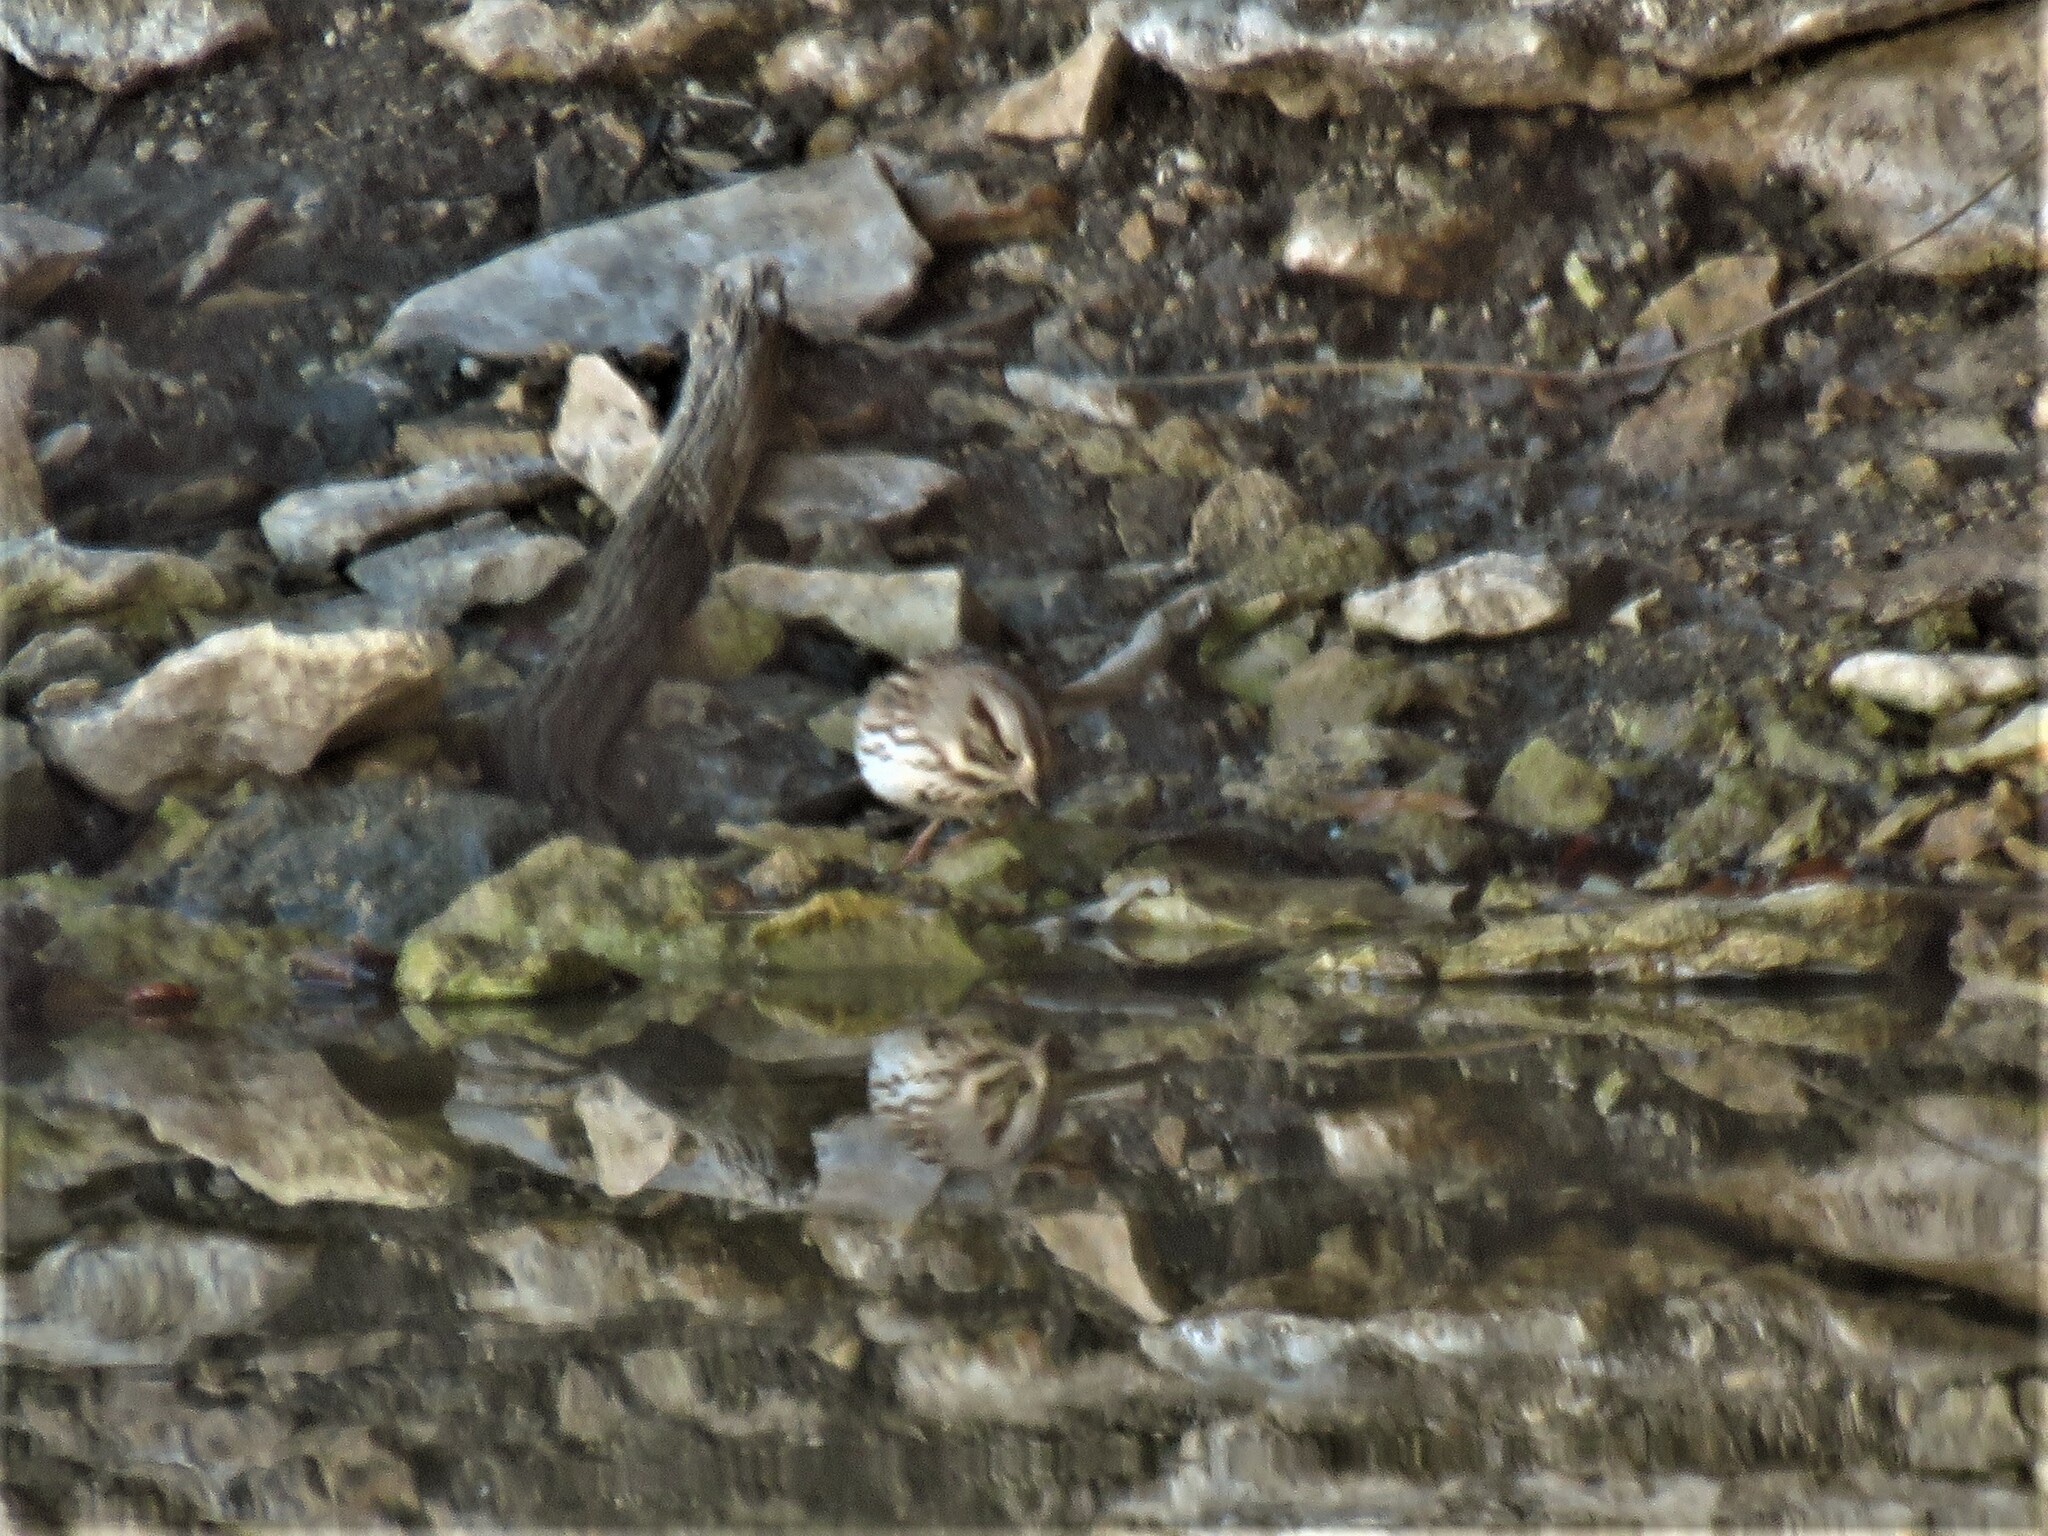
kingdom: Animalia
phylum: Chordata
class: Aves
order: Passeriformes
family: Passerellidae
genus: Melospiza
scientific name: Melospiza melodia
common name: Song sparrow
